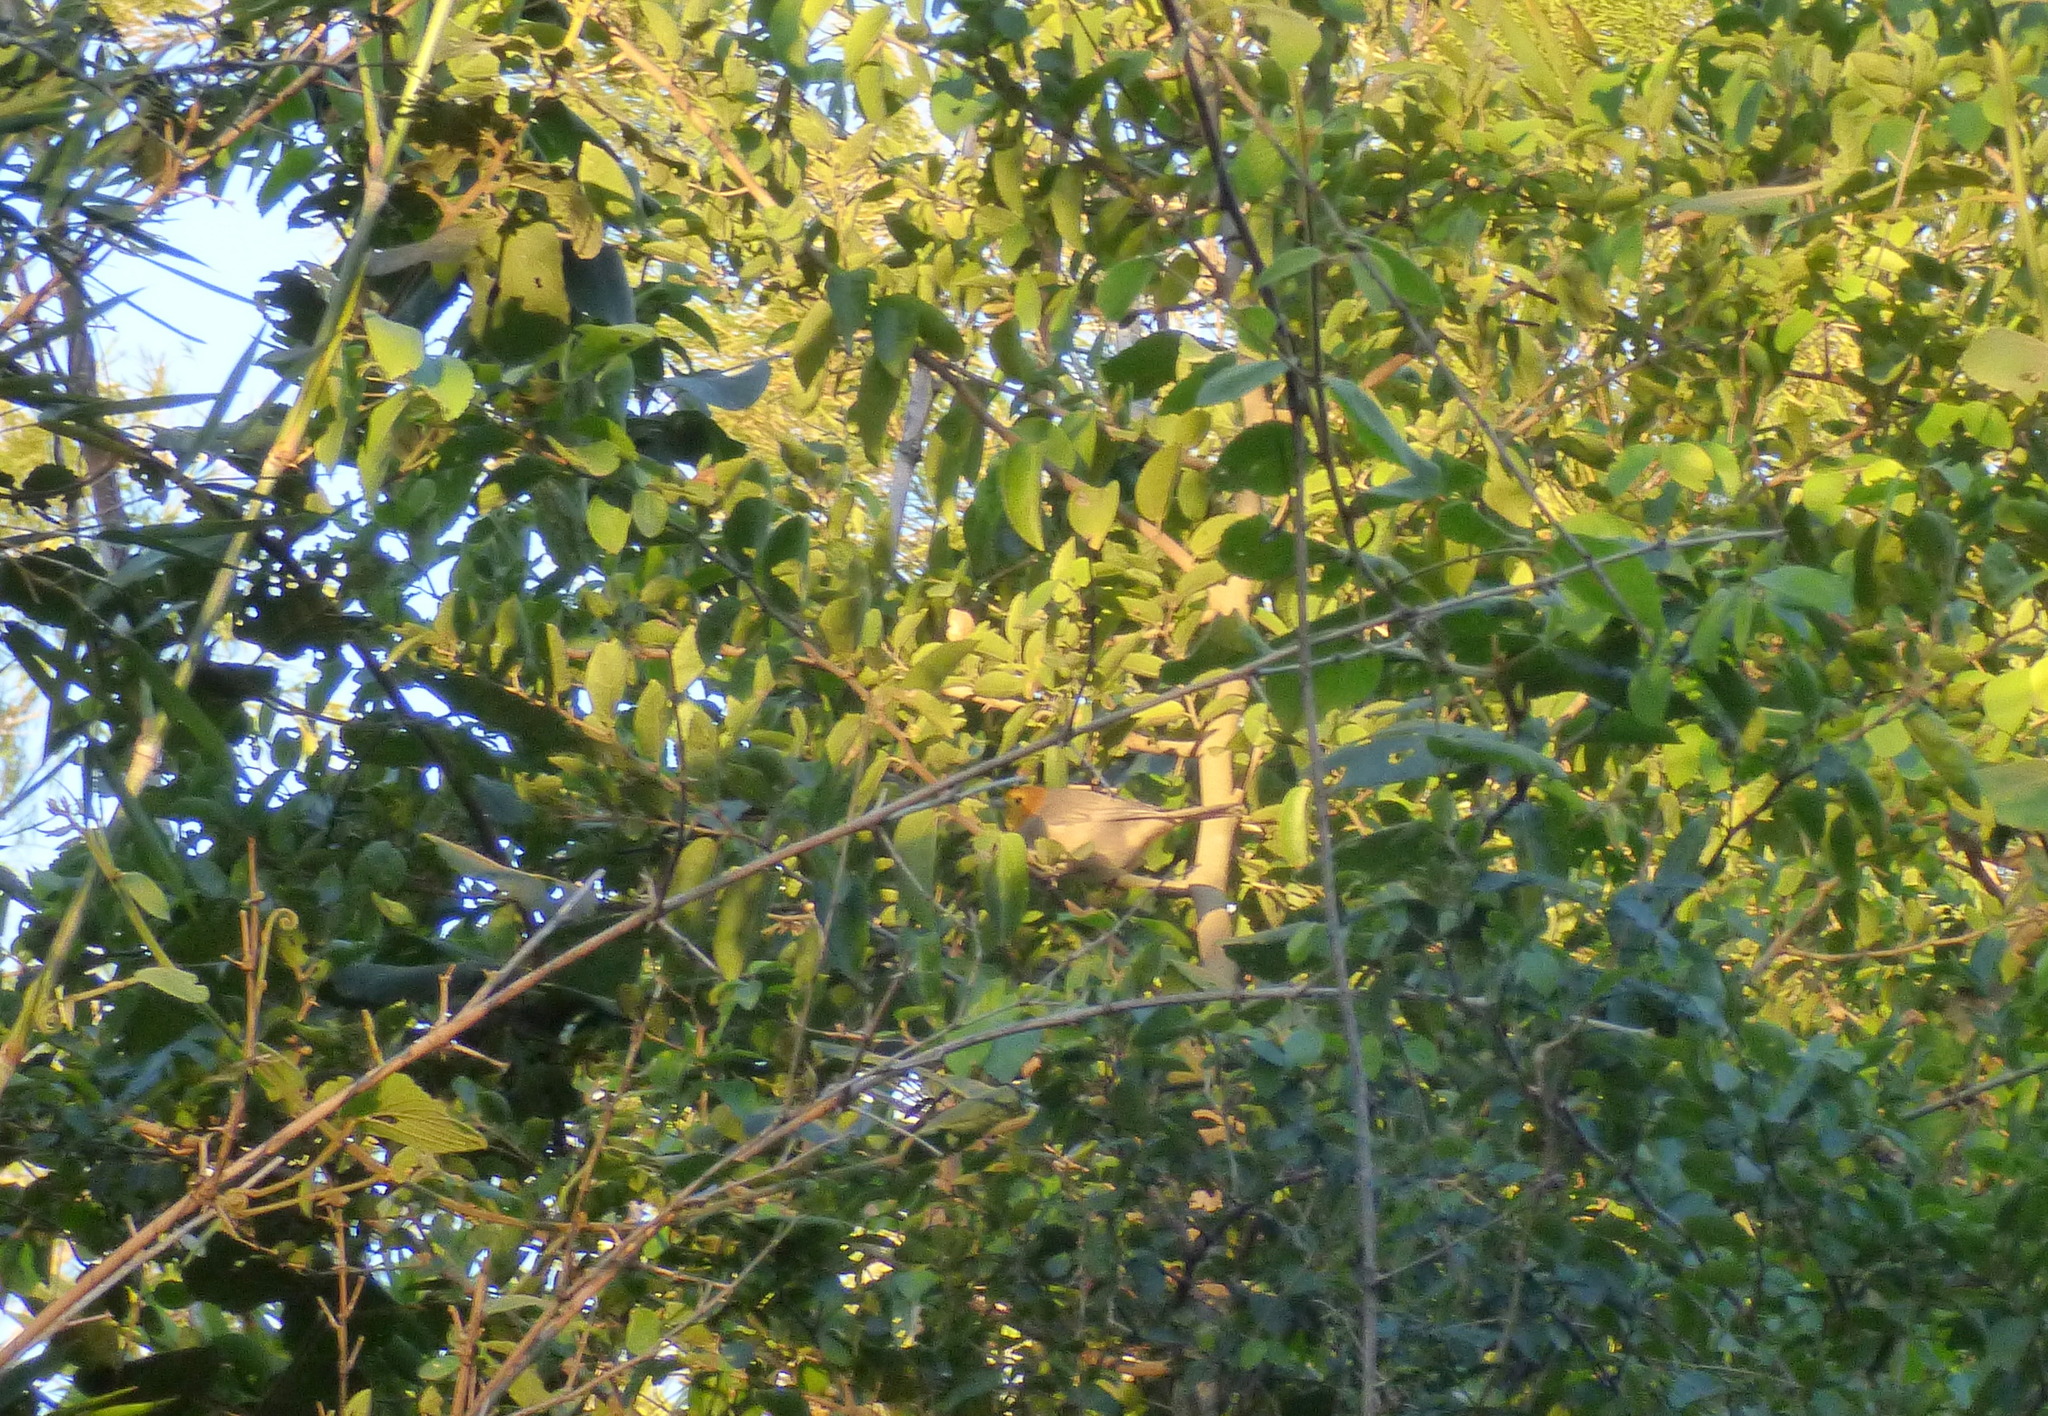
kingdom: Animalia
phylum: Chordata
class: Aves
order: Passeriformes
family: Thraupidae
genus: Thlypopsis
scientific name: Thlypopsis sordida
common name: Orange-headed tanager
